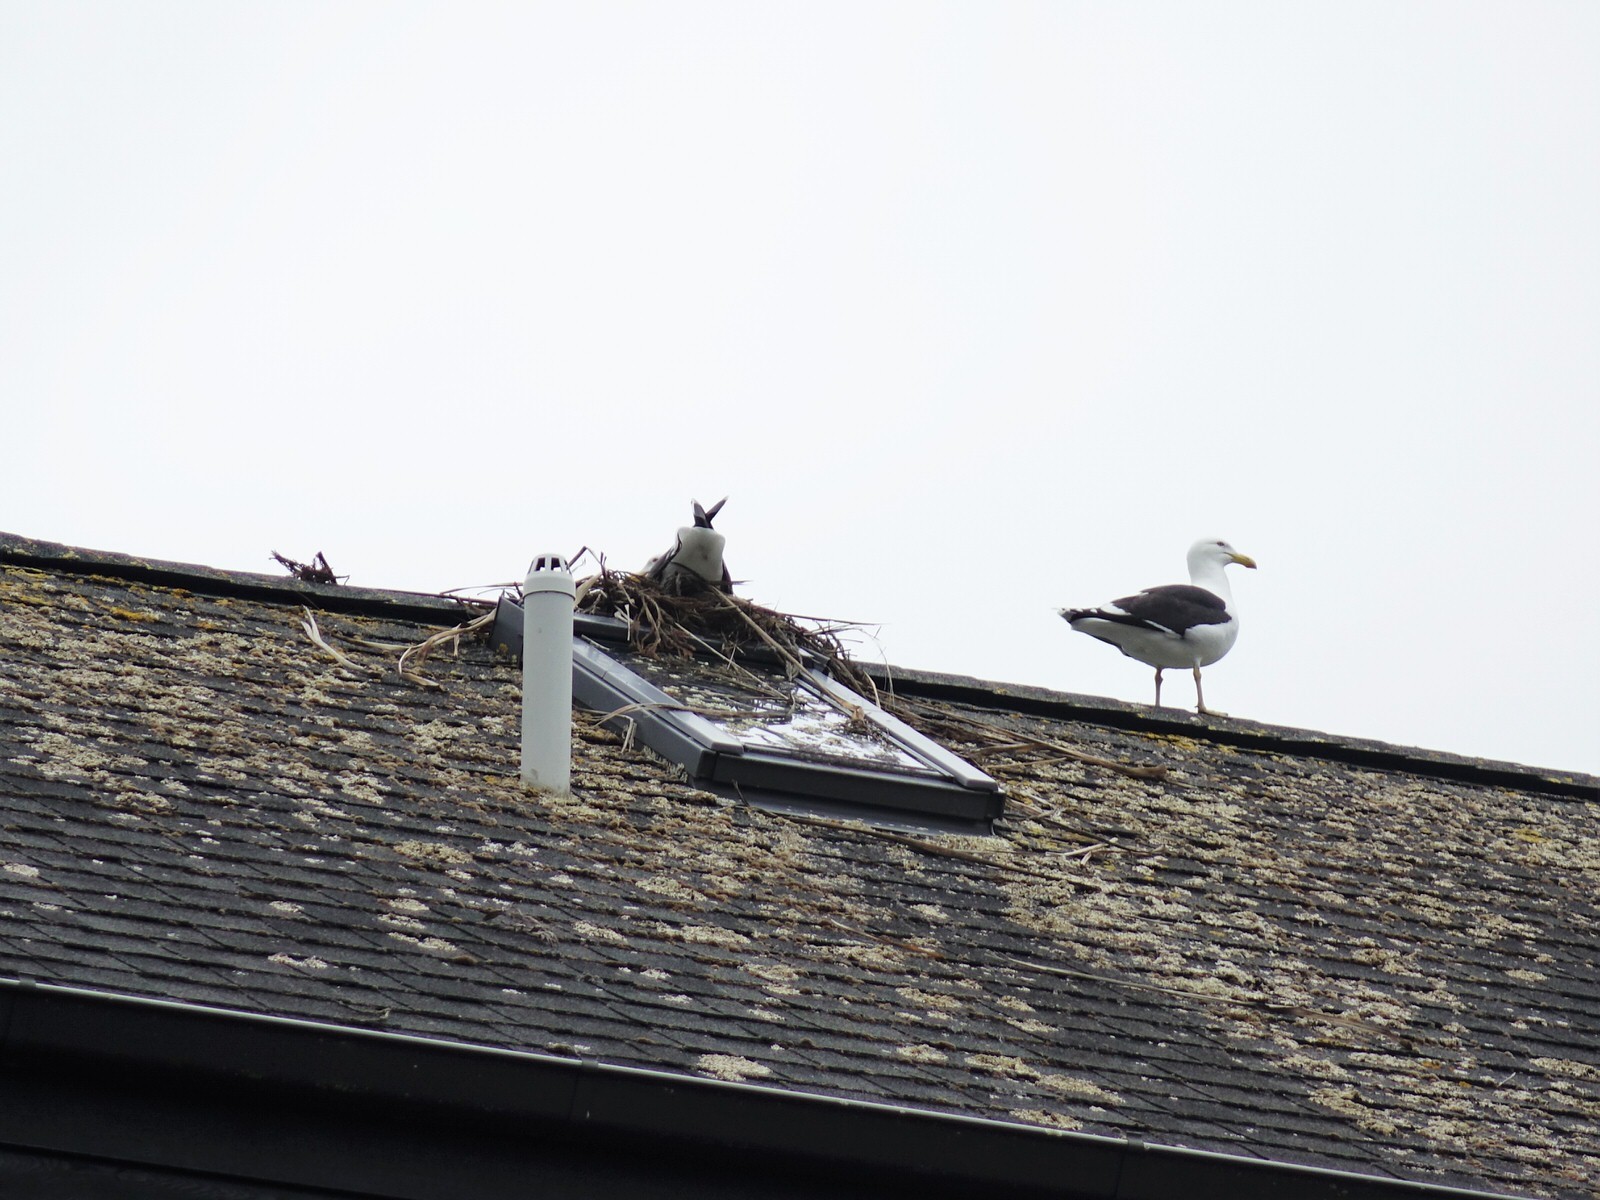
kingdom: Animalia
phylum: Chordata
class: Aves
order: Charadriiformes
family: Laridae
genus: Larus
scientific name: Larus dominicanus
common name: Kelp gull
